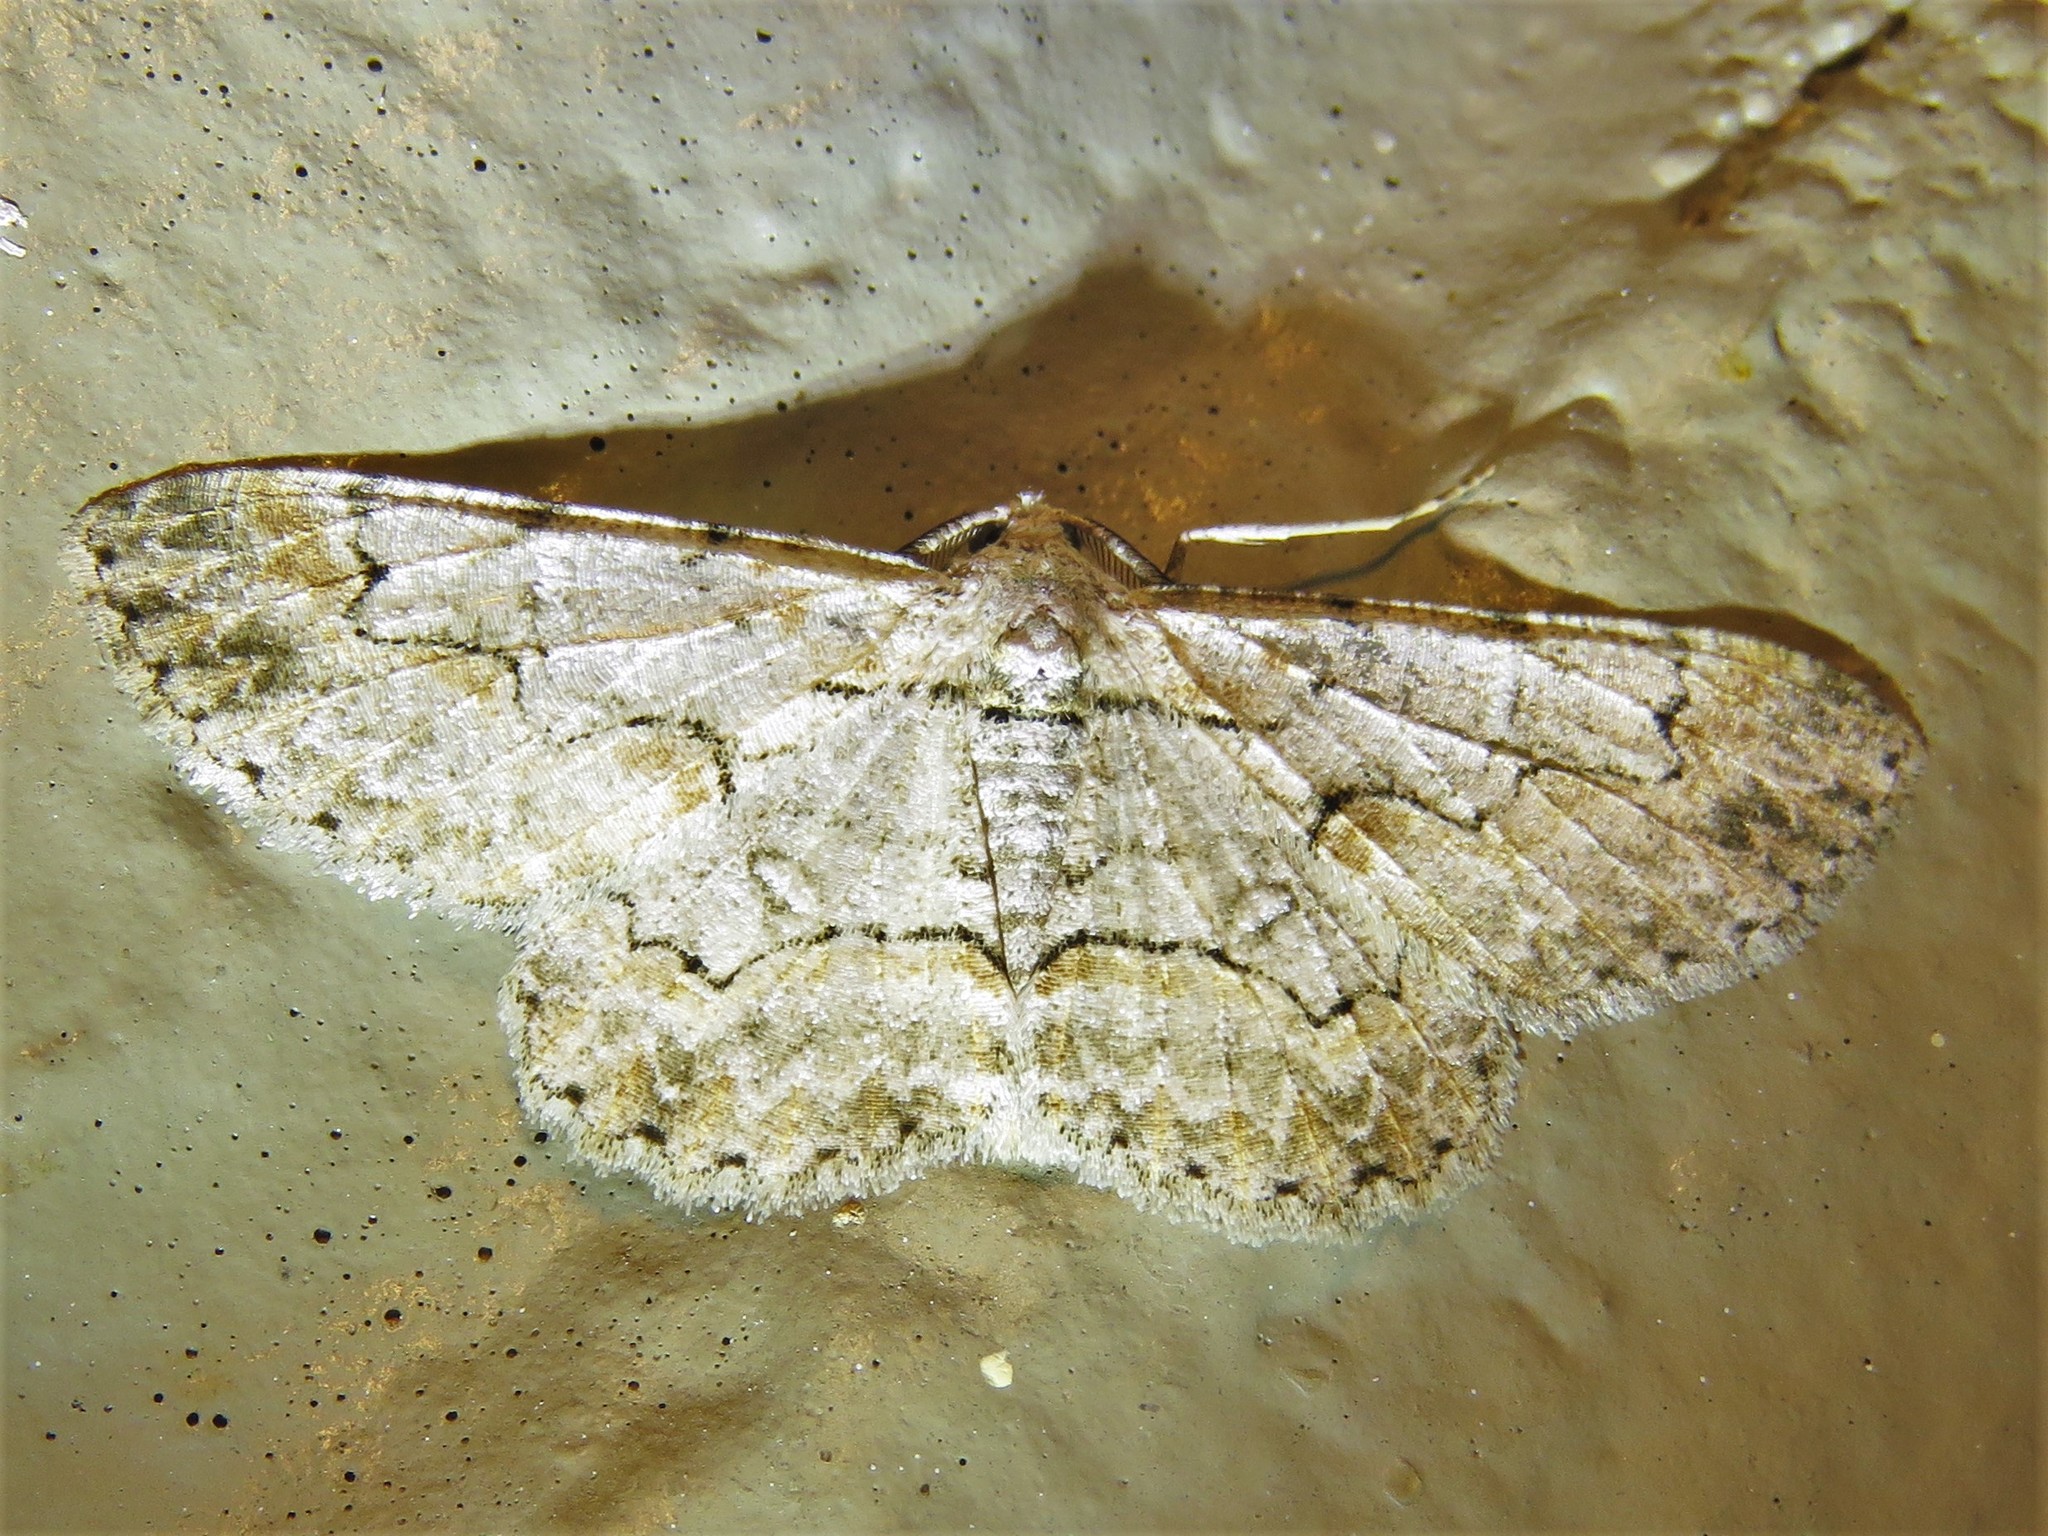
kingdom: Animalia
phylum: Arthropoda
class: Insecta
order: Lepidoptera
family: Geometridae
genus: Iridopsis
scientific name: Iridopsis defectaria
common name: Brown-shaded gray
